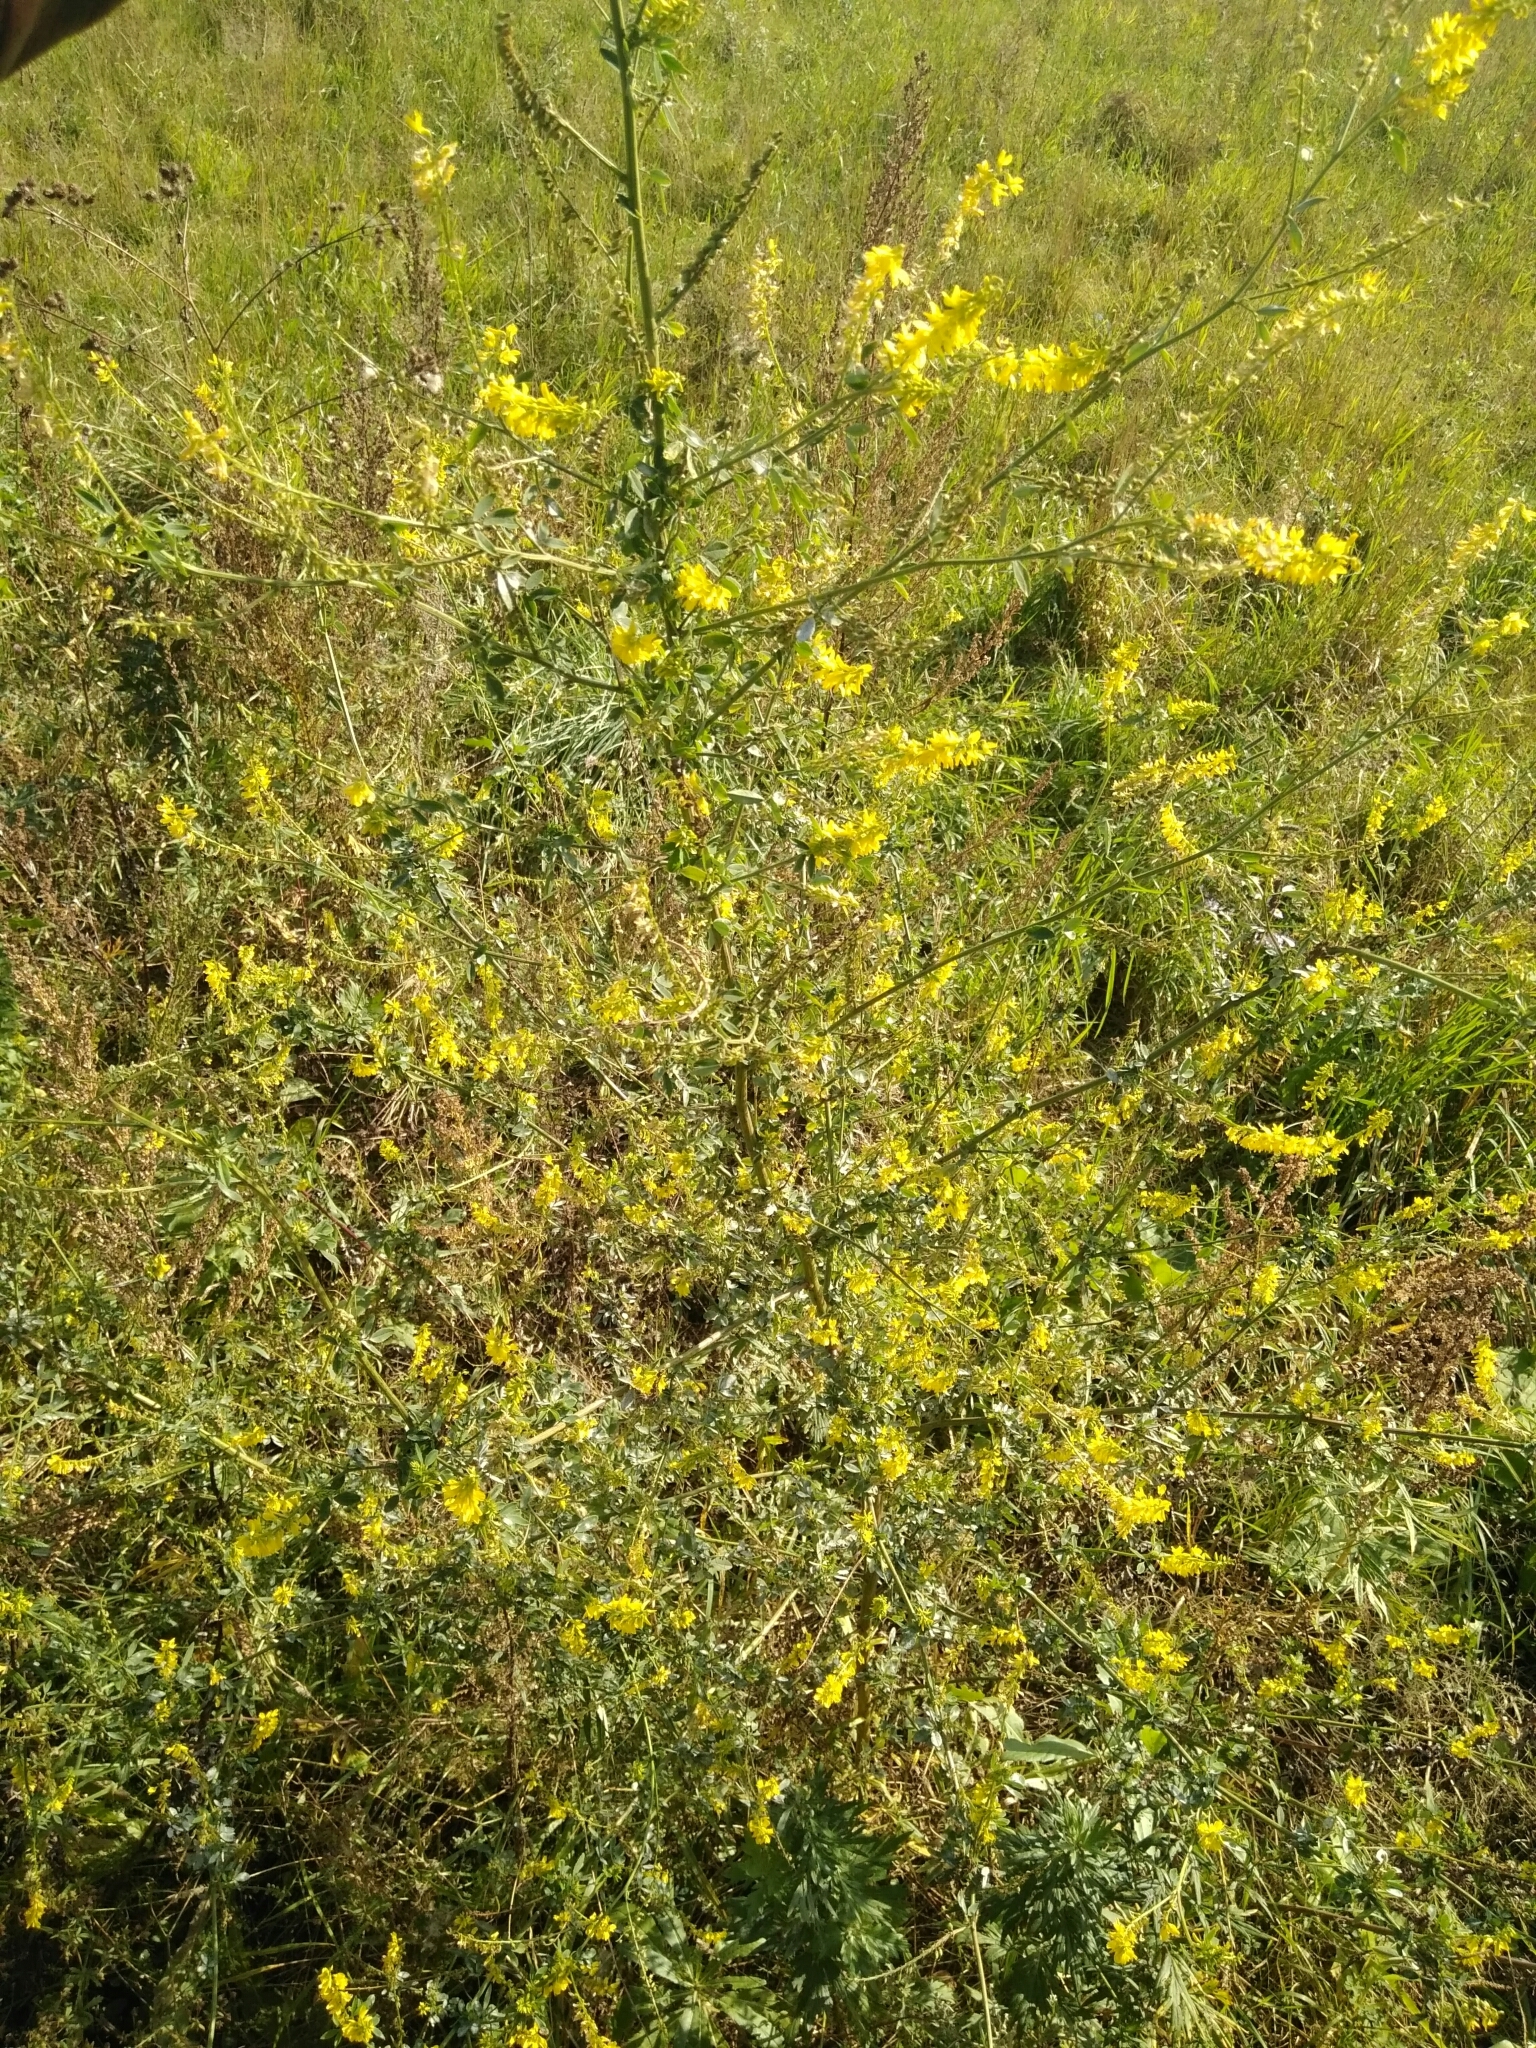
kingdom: Plantae
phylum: Tracheophyta
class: Magnoliopsida
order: Fabales
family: Fabaceae
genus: Melilotus
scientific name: Melilotus officinalis
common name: Sweetclover
